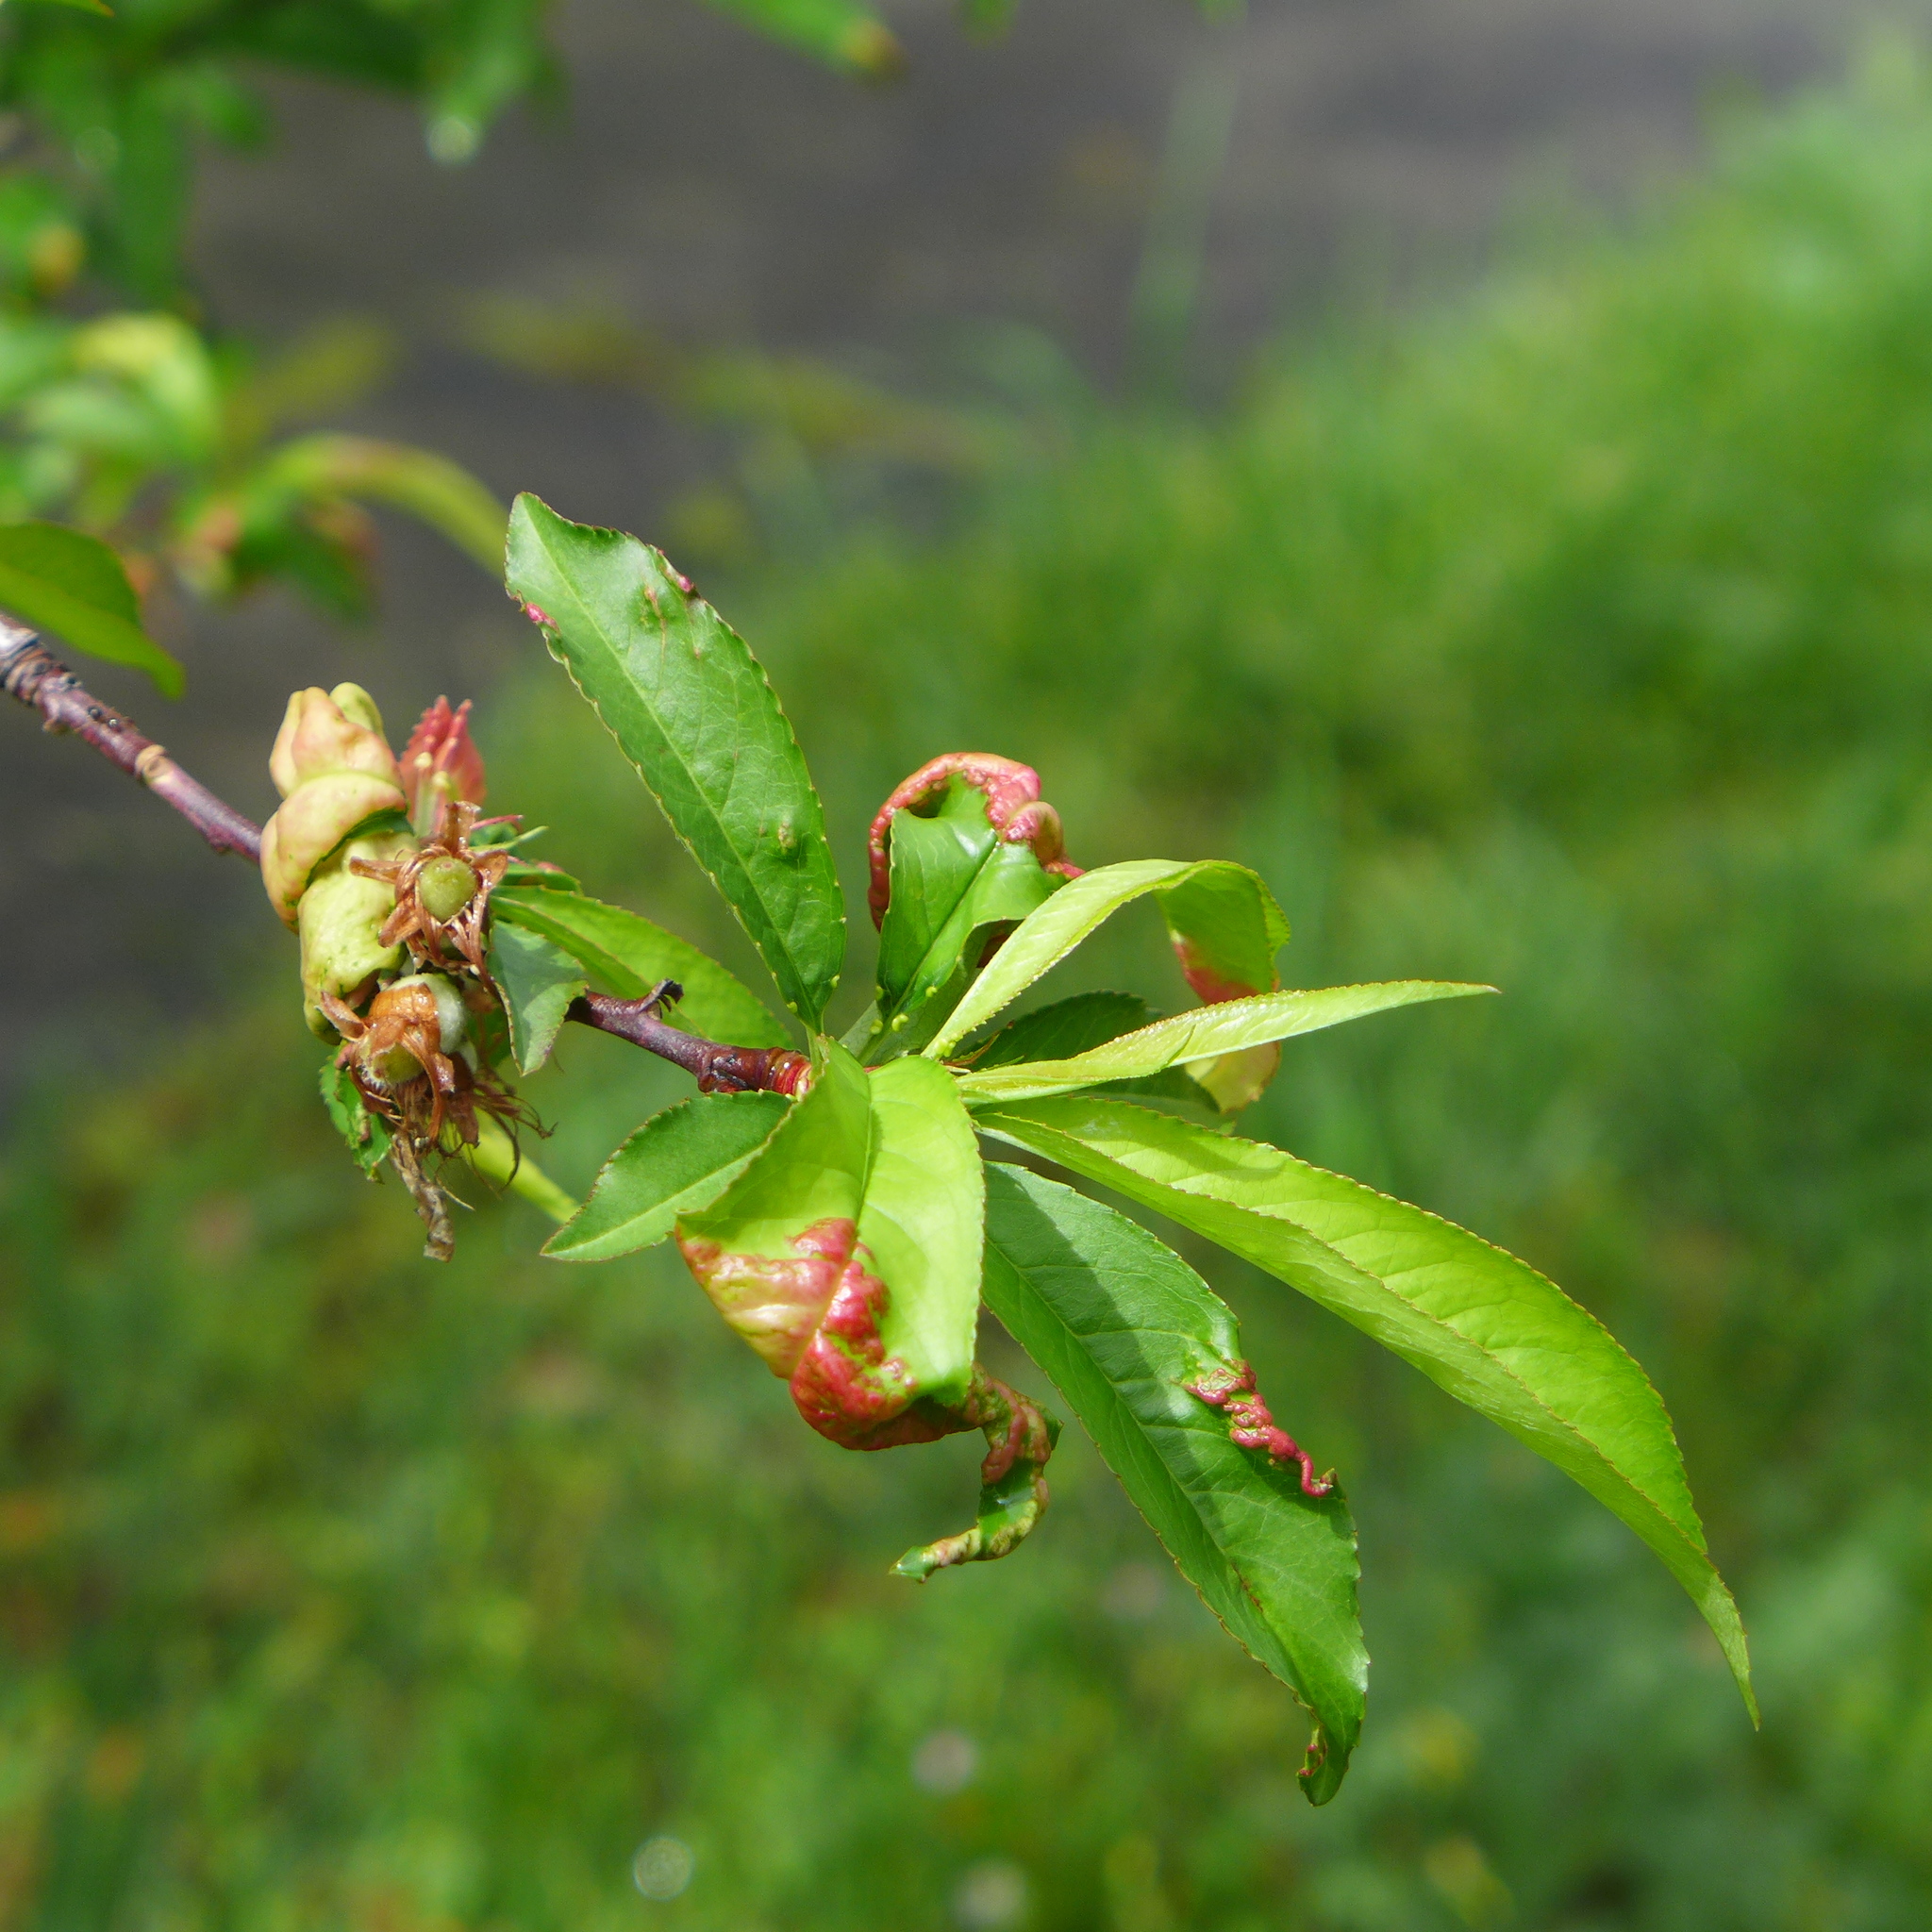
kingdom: Fungi
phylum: Ascomycota
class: Taphrinomycetes
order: Taphrinales
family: Taphrinaceae
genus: Taphrina
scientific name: Taphrina deformans
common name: Peach leaf curl
